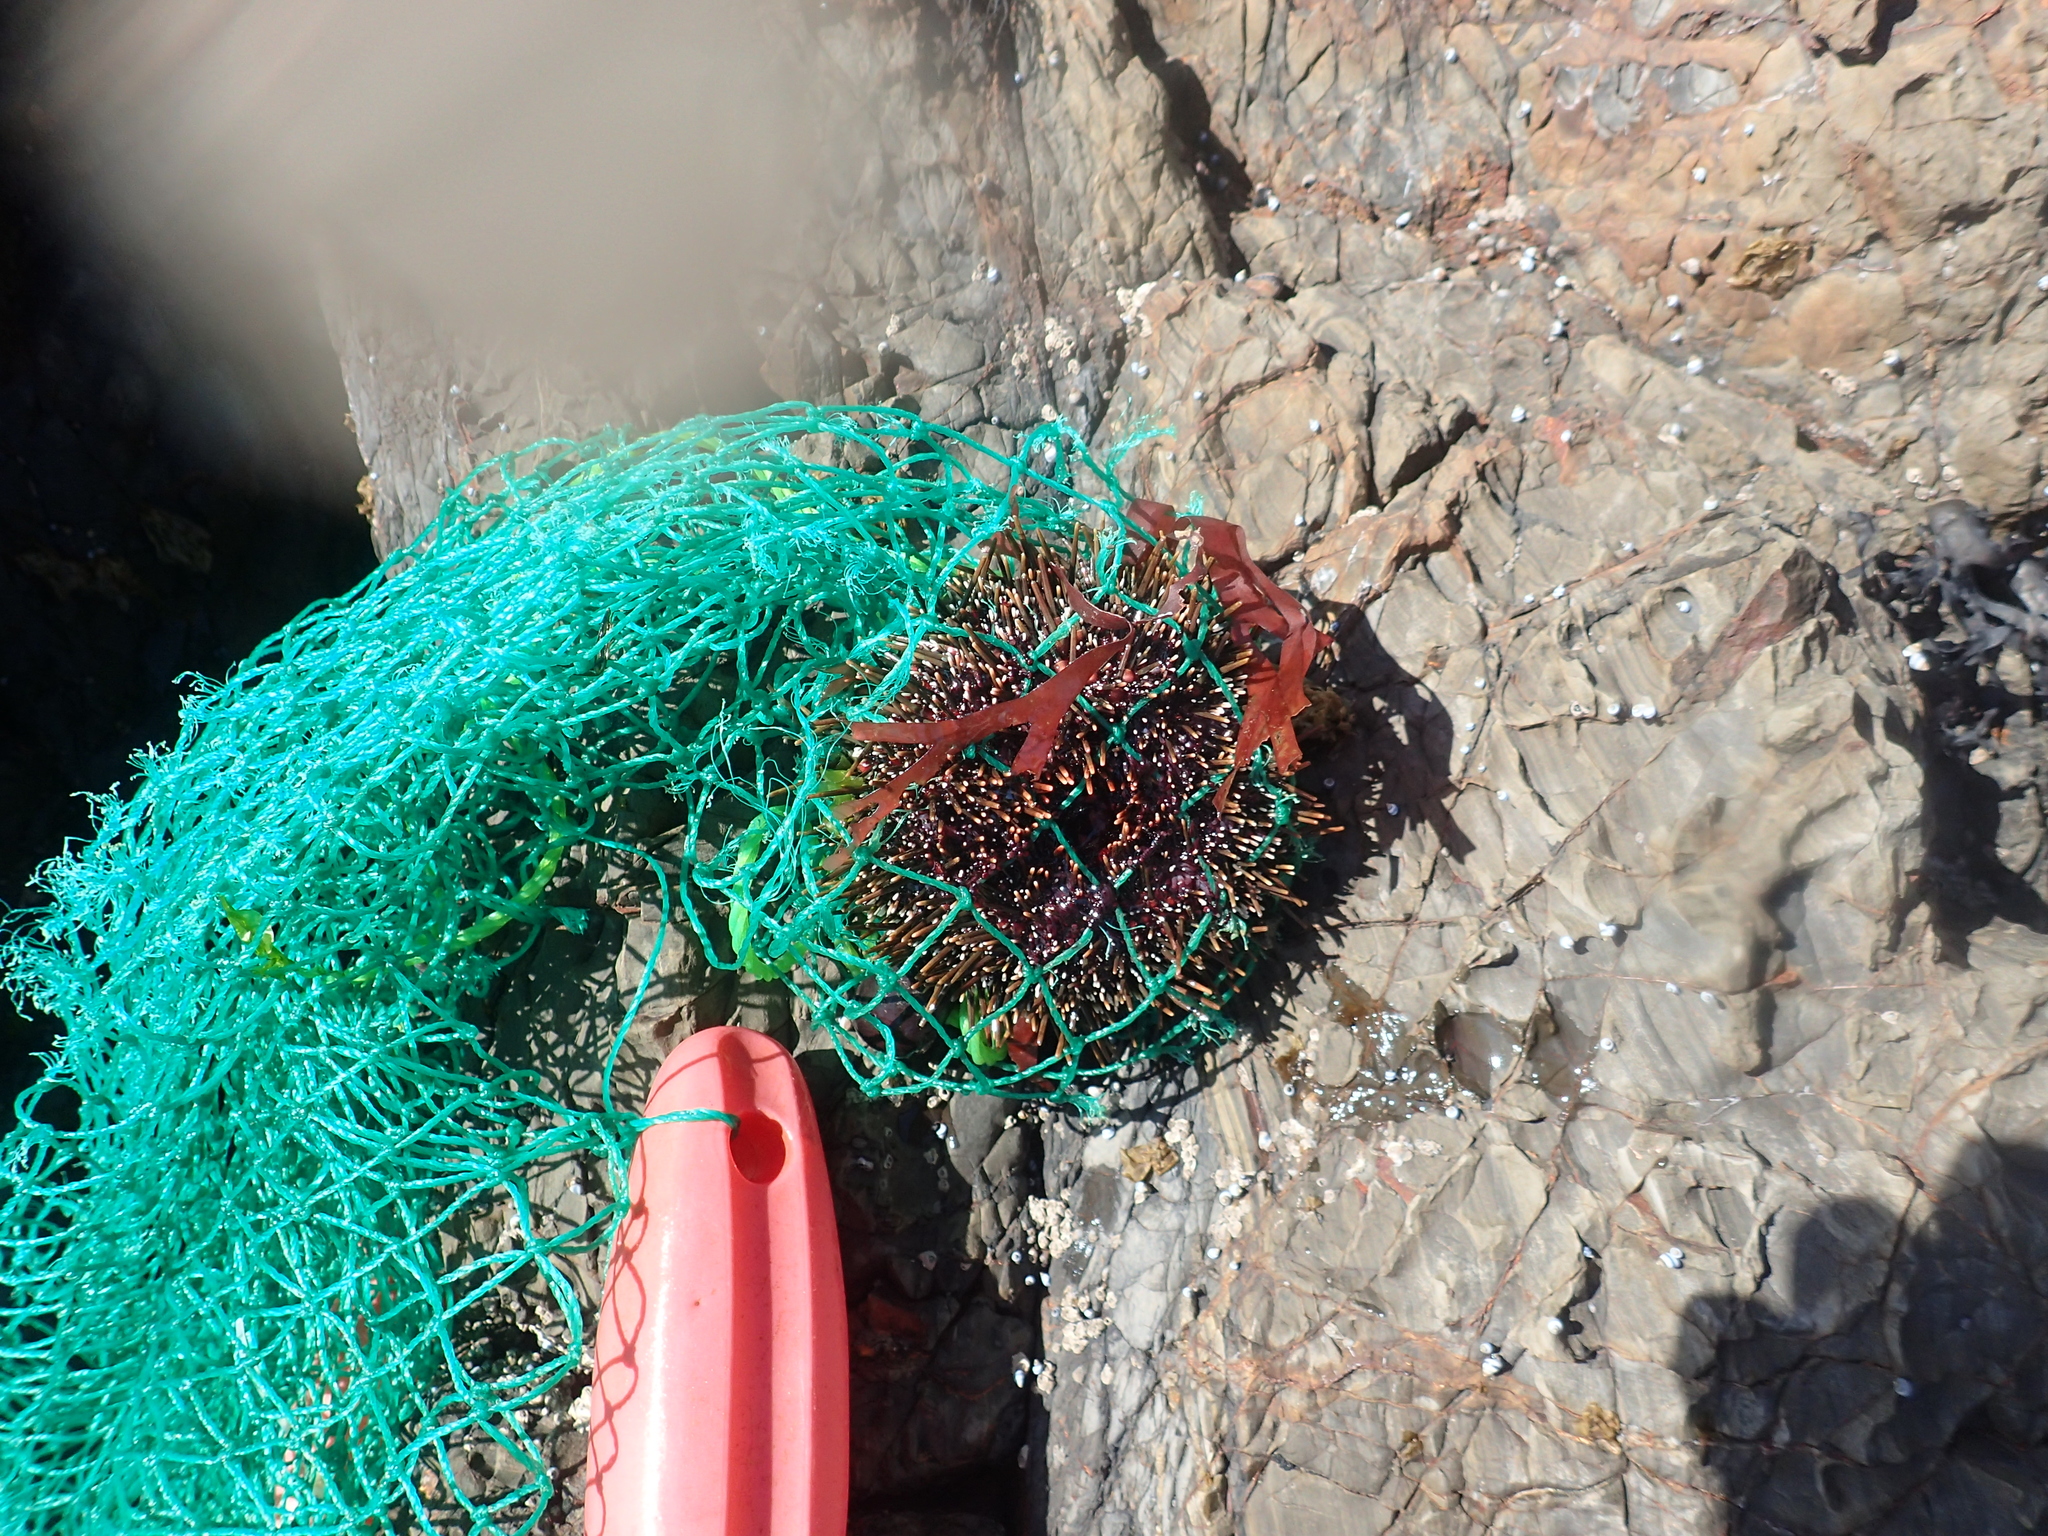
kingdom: Animalia
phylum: Echinodermata
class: Echinoidea
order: Camarodonta
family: Echinometridae
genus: Evechinus
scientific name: Evechinus chloroticus
